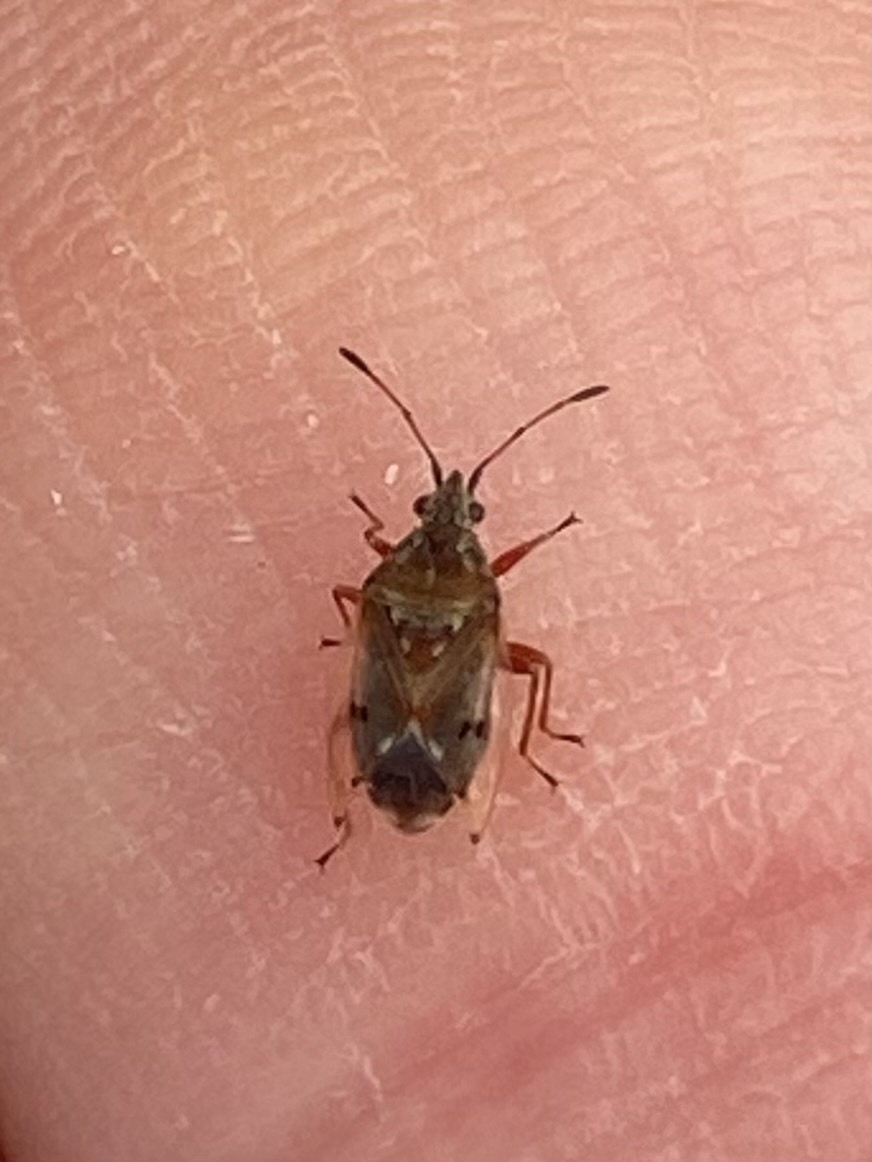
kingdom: Animalia
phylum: Arthropoda
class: Insecta
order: Hemiptera
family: Lygaeidae
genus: Kleidocerys
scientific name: Kleidocerys resedae
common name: Birch catkin bug
